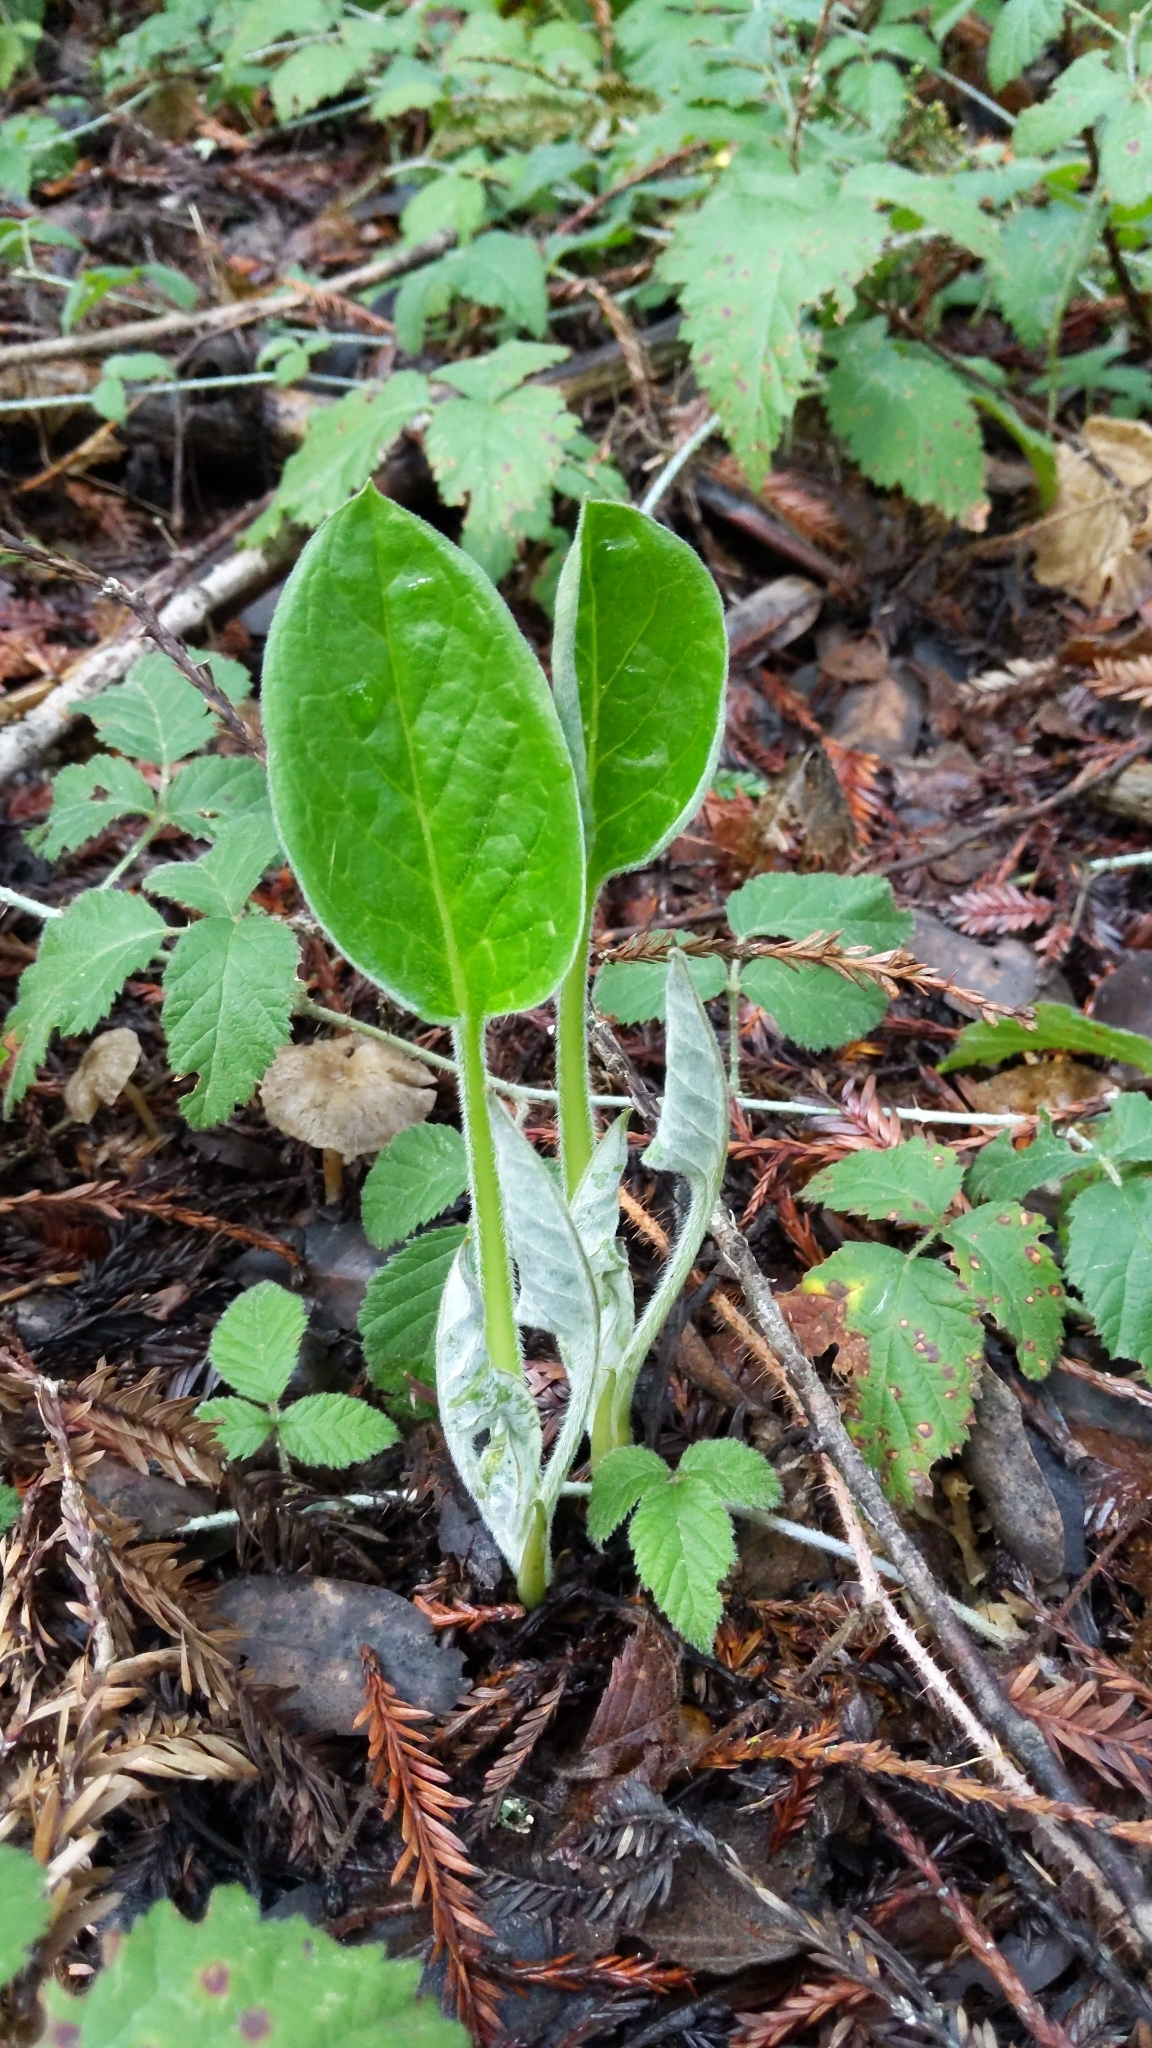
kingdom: Plantae
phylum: Tracheophyta
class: Magnoliopsida
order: Boraginales
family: Boraginaceae
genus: Adelinia
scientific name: Adelinia grande
